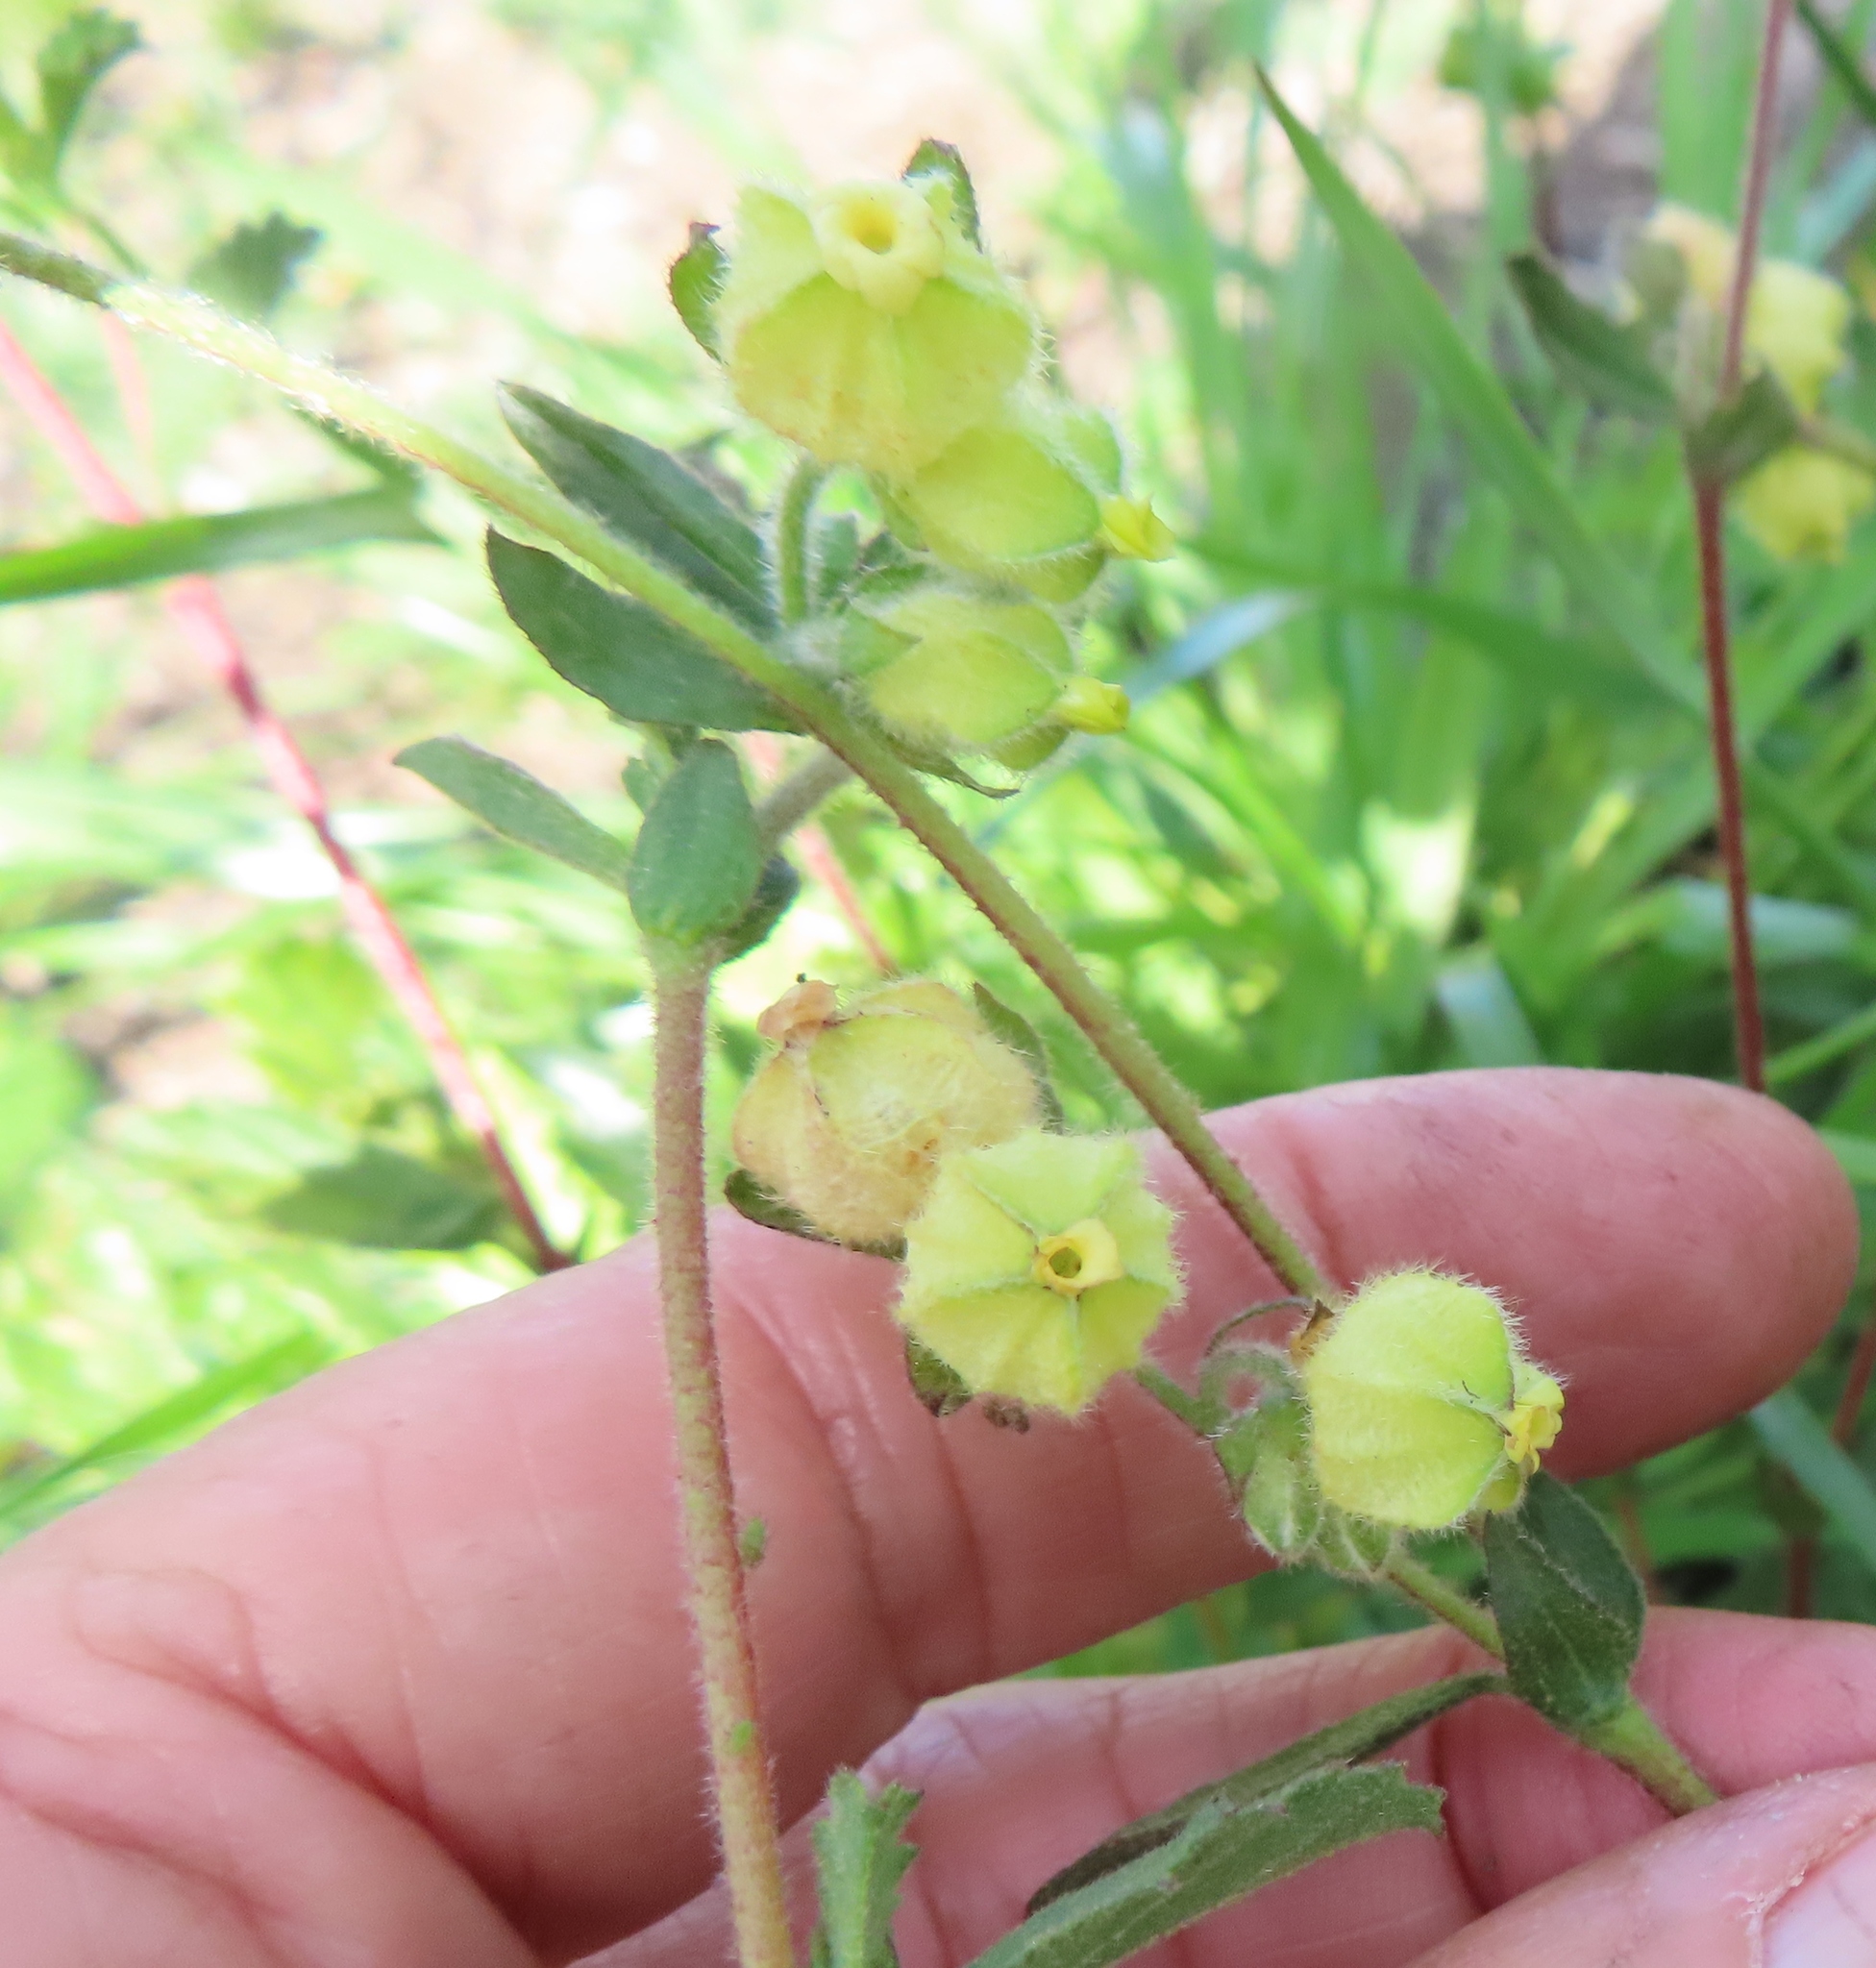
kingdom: Plantae
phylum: Tracheophyta
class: Magnoliopsida
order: Malvales
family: Malvaceae
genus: Hermannia
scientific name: Hermannia hyssopifolia
